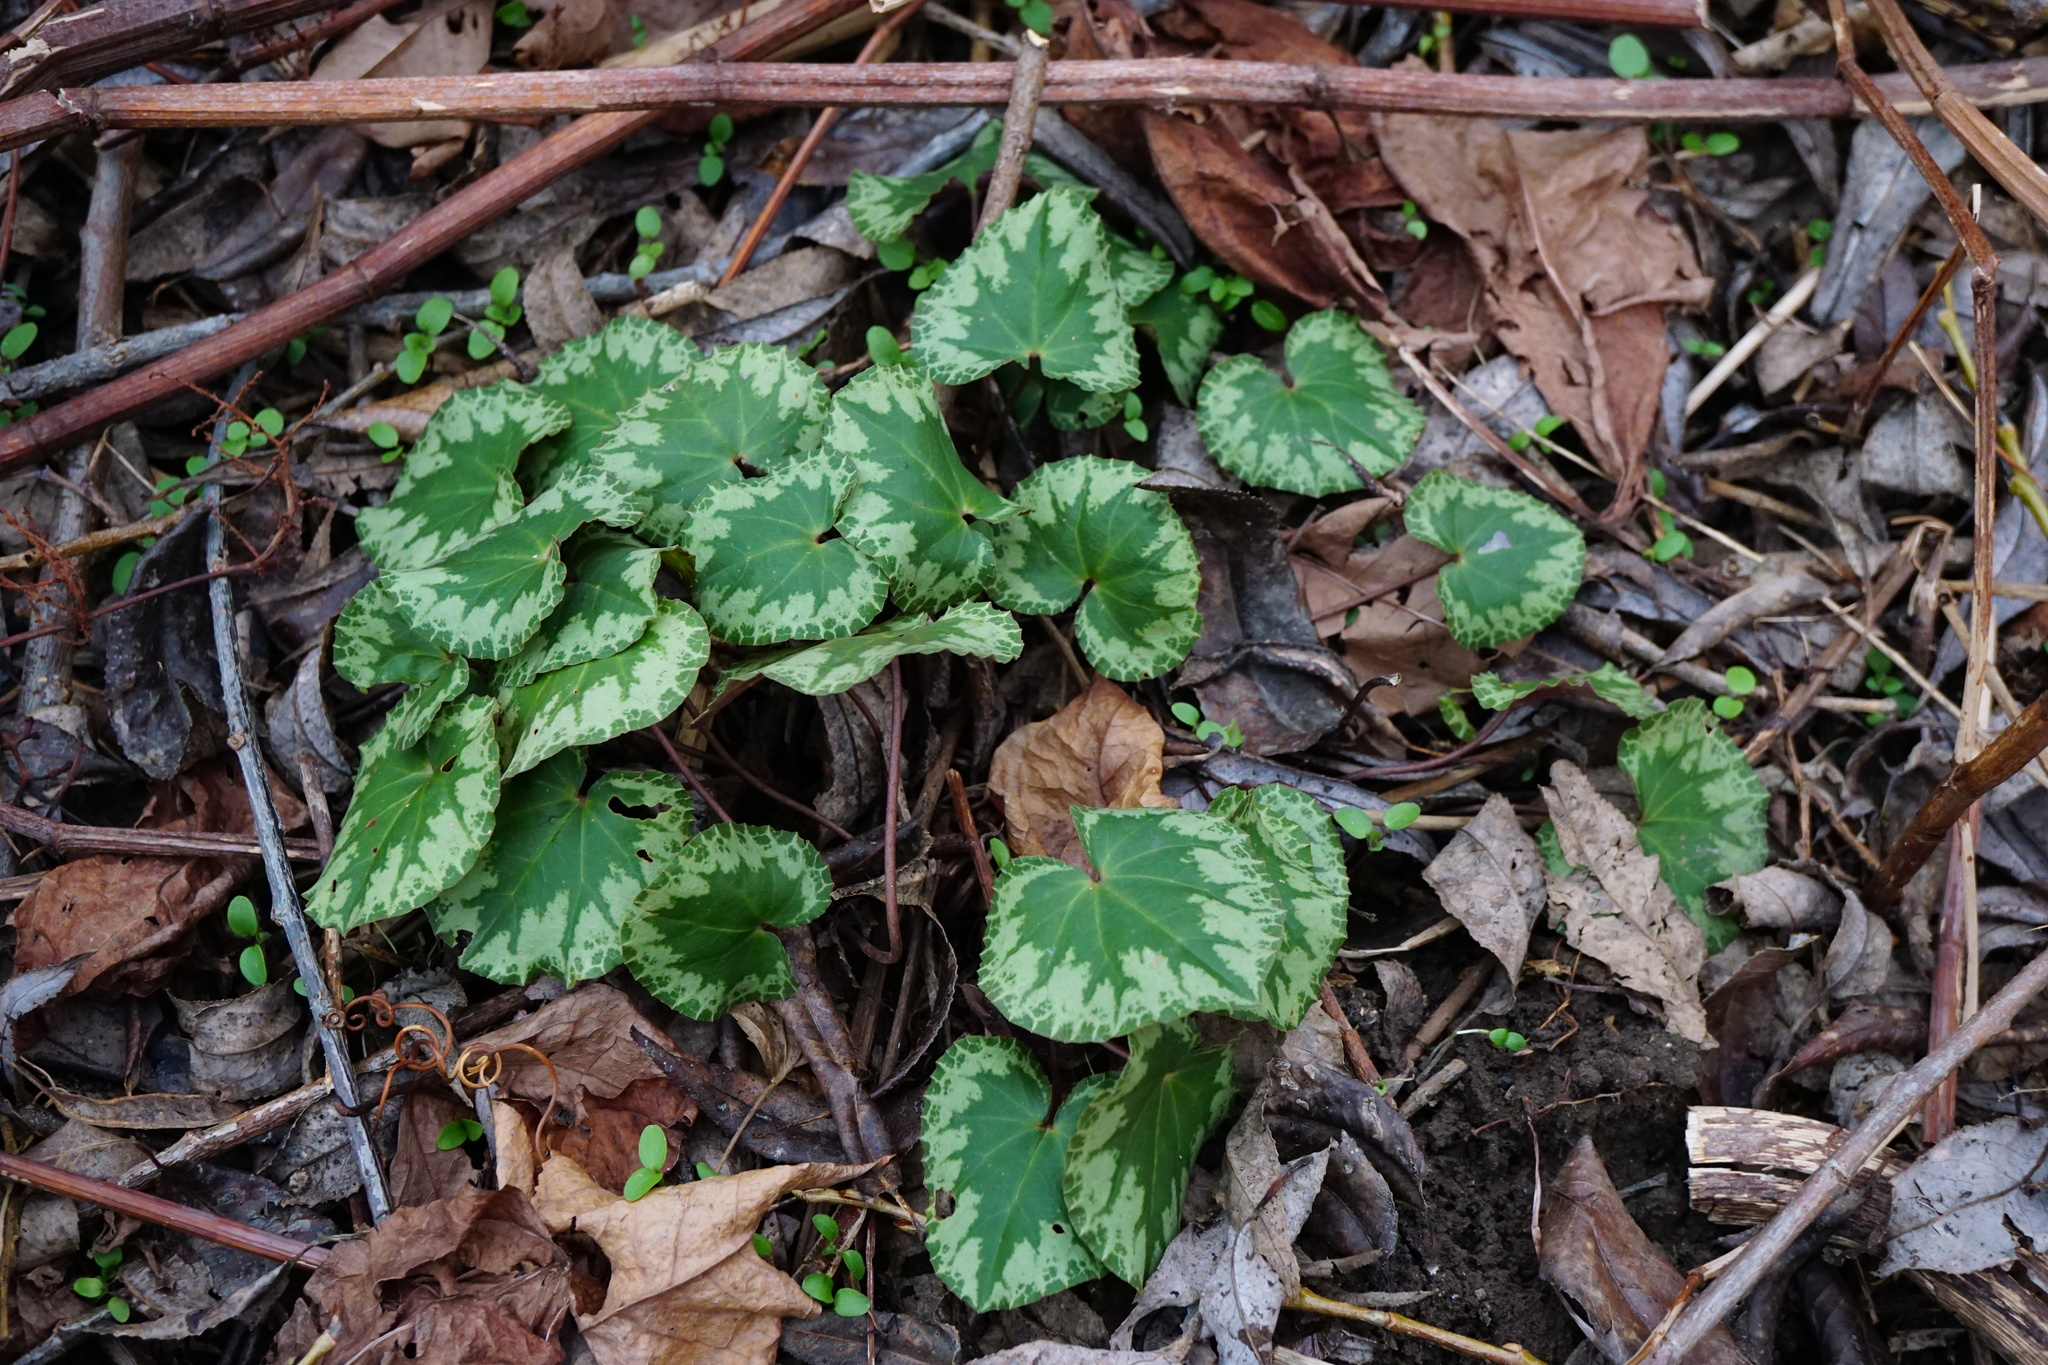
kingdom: Plantae
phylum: Tracheophyta
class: Magnoliopsida
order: Ericales
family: Primulaceae
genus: Cyclamen
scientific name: Cyclamen purpurascens
